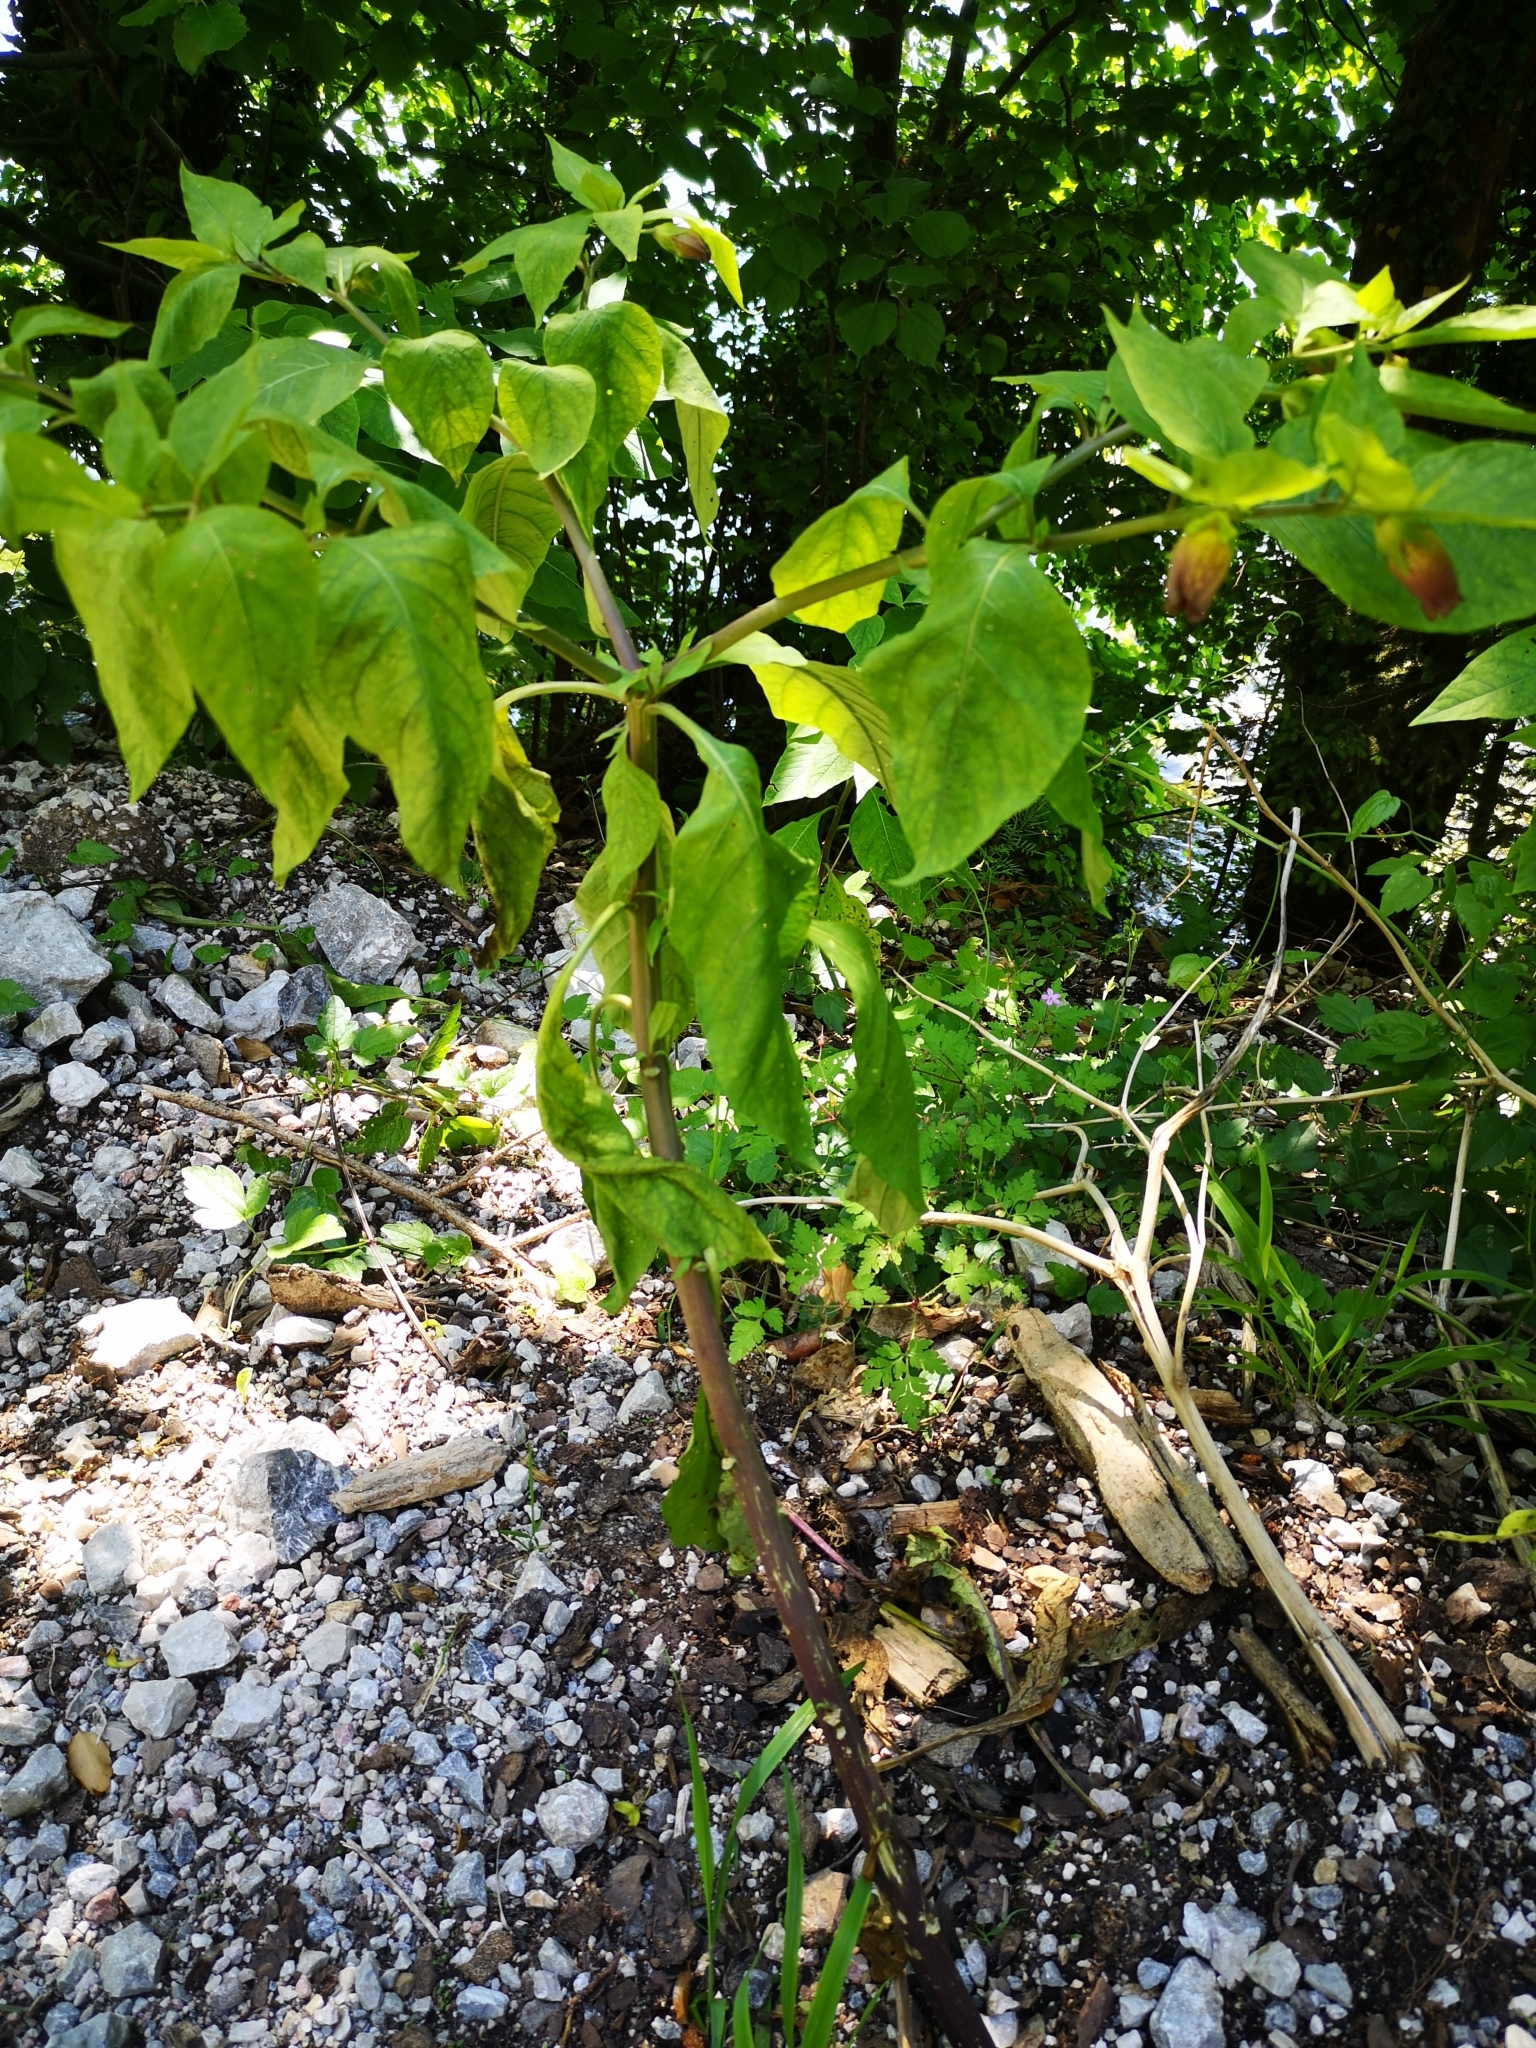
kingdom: Plantae
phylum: Tracheophyta
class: Magnoliopsida
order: Solanales
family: Solanaceae
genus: Atropa
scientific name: Atropa belladonna
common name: Deadly nightshade
